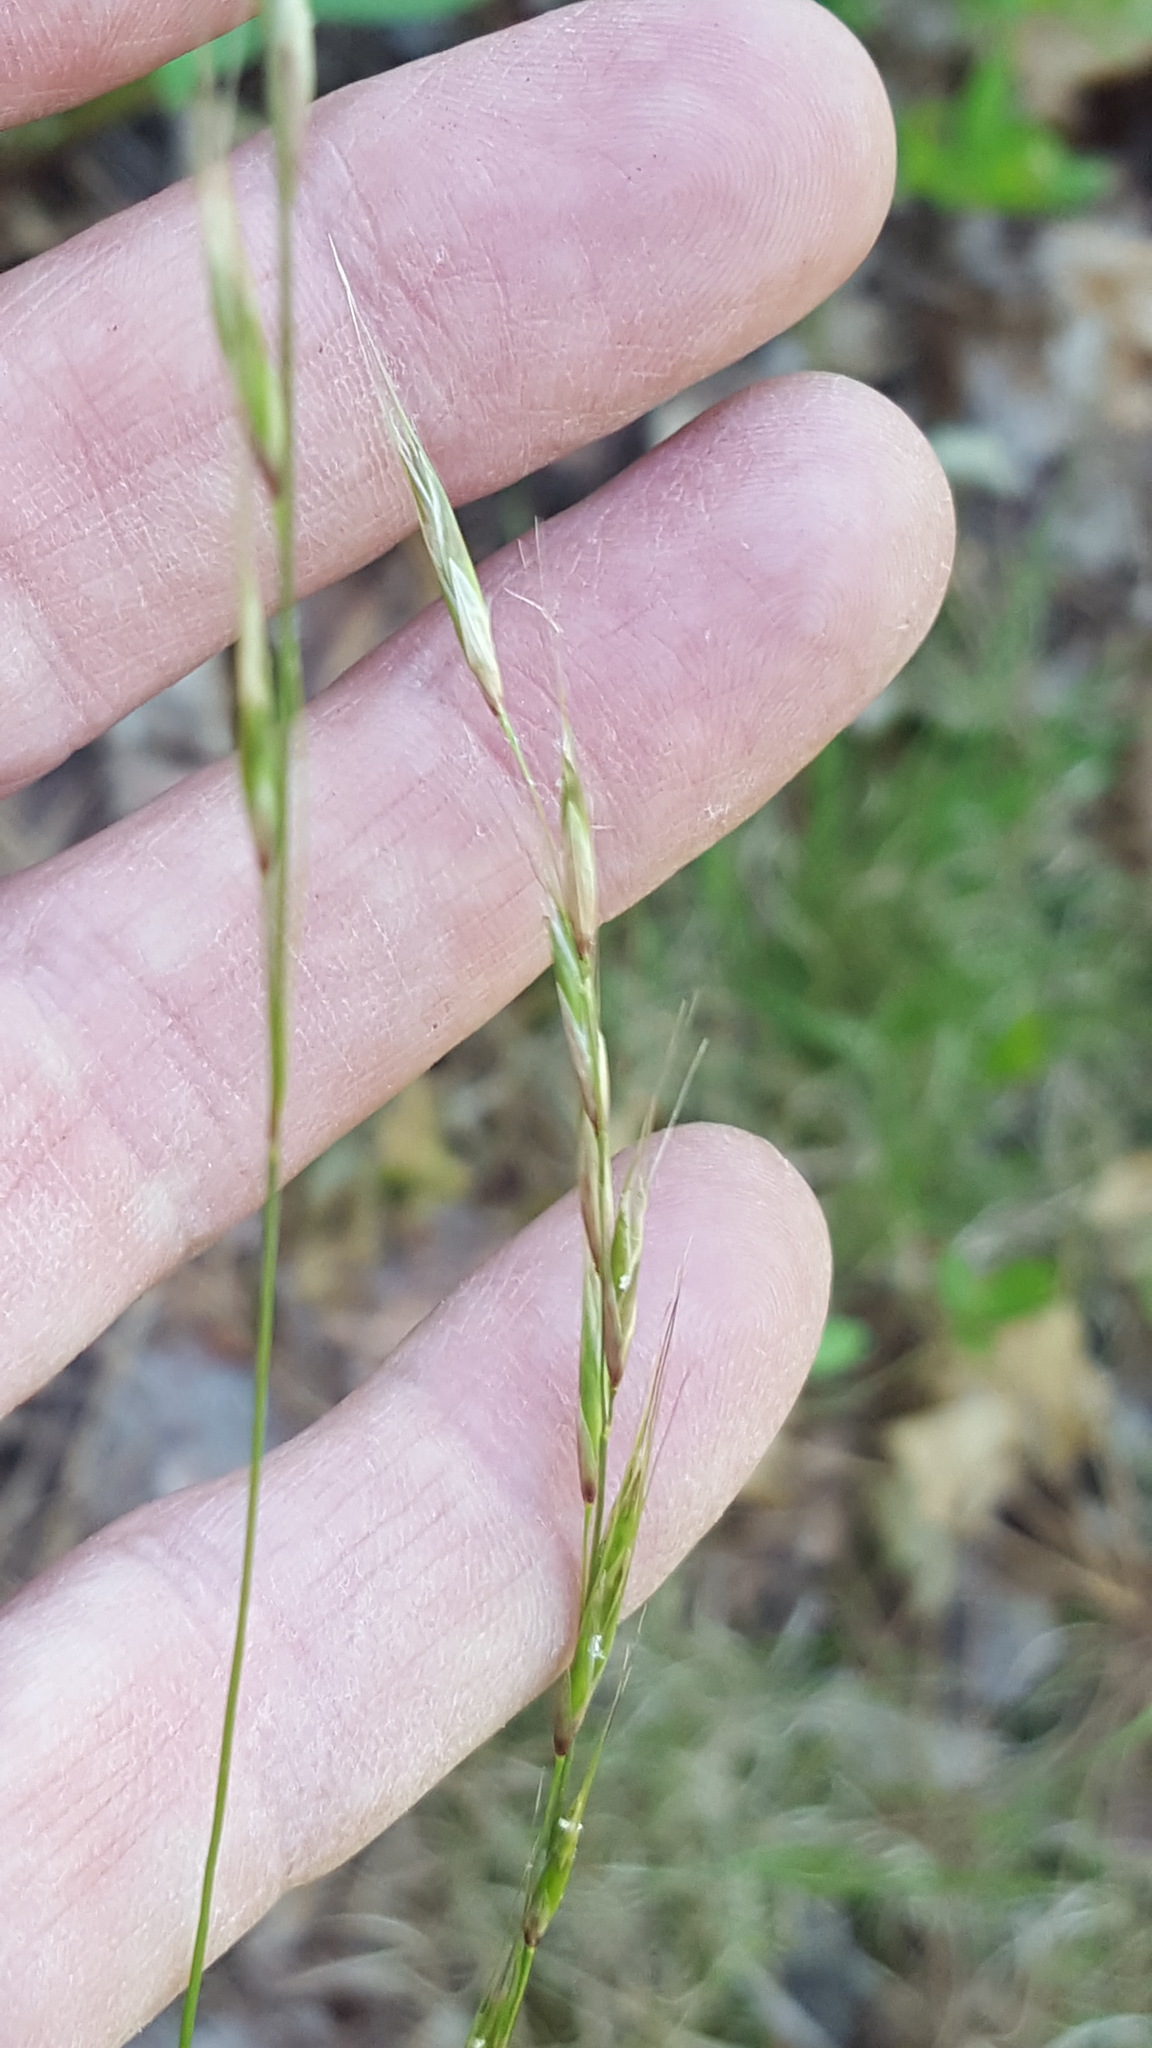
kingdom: Plantae
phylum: Tracheophyta
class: Liliopsida
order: Poales
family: Poaceae
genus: Schizachne
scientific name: Schizachne purpurascens
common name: False melic
